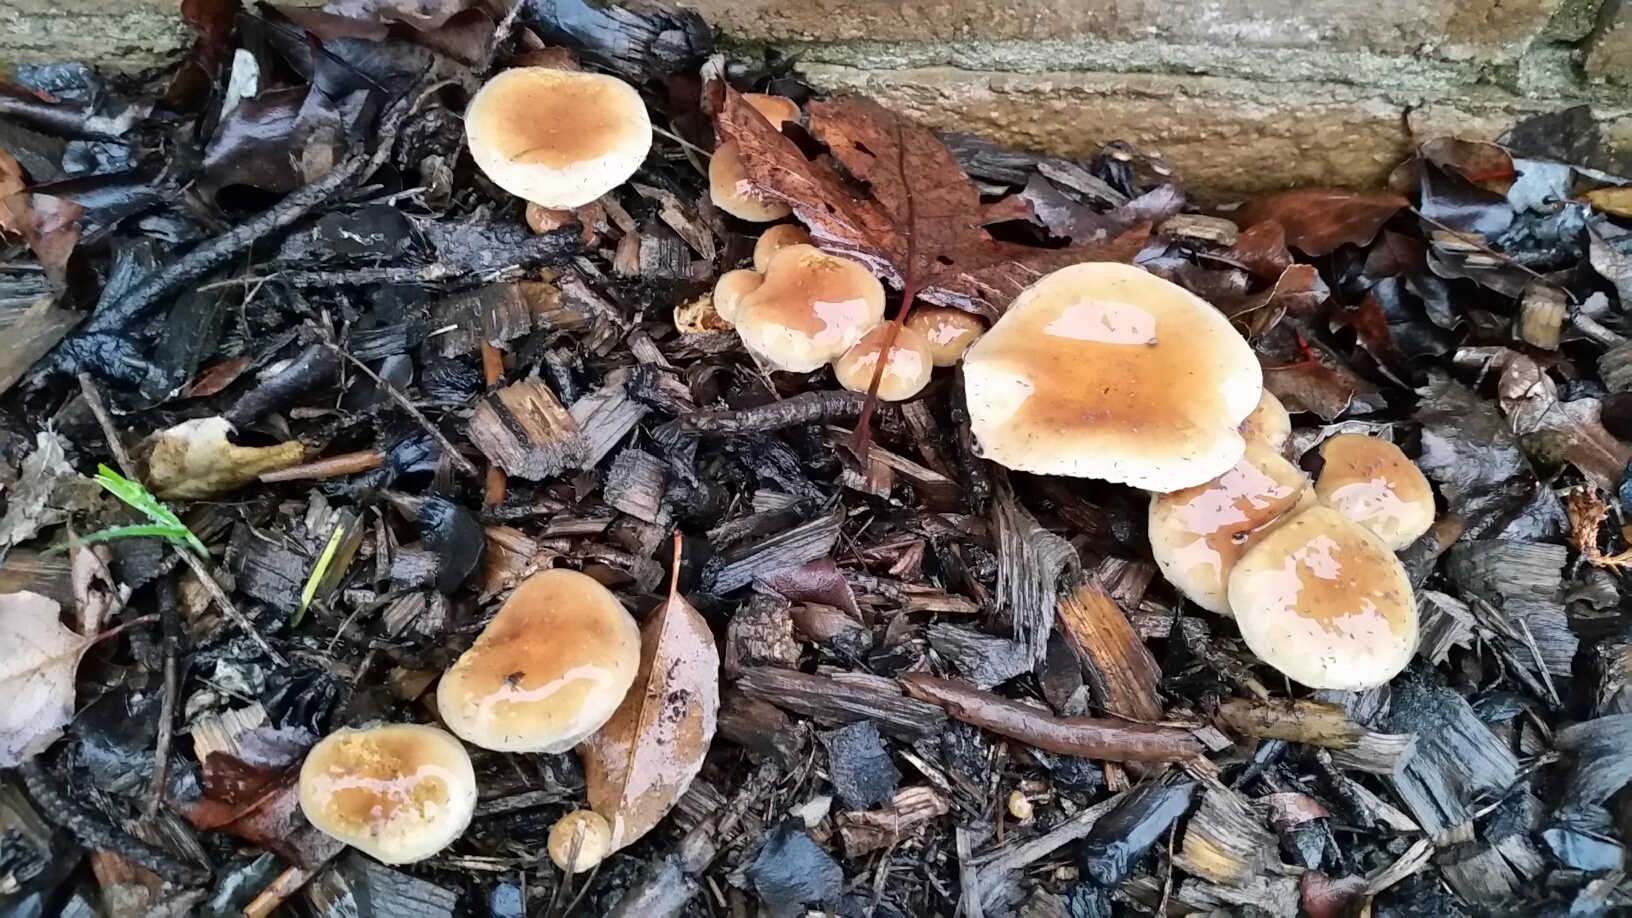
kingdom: Fungi
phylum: Basidiomycota
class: Agaricomycetes
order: Agaricales
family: Strophariaceae
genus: Pholiota
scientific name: Pholiota velaglutinosa
